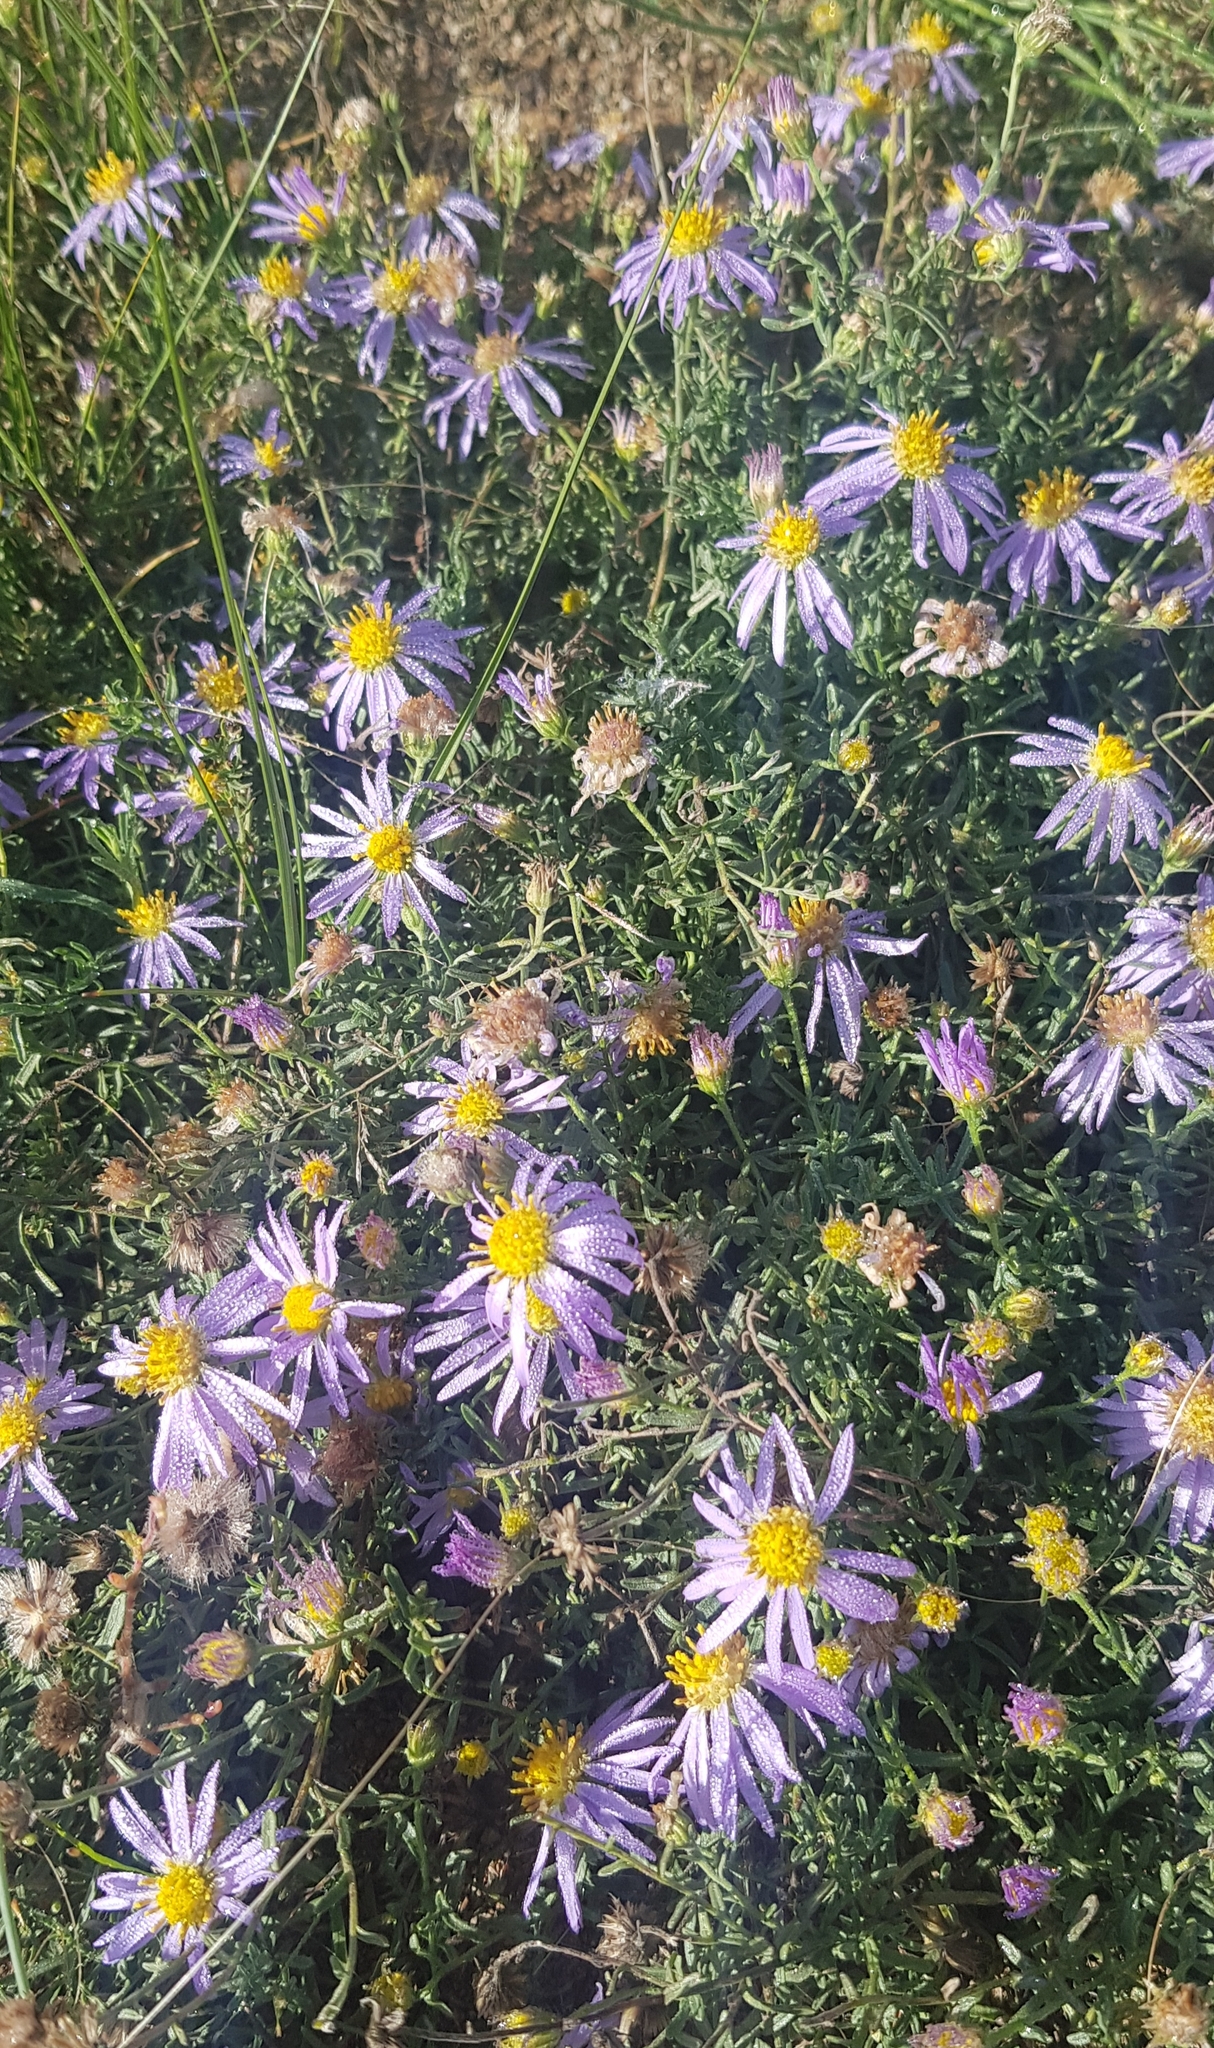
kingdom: Plantae
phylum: Tracheophyta
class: Magnoliopsida
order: Asterales
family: Asteraceae
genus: Heteropappus
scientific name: Heteropappus altaicus
